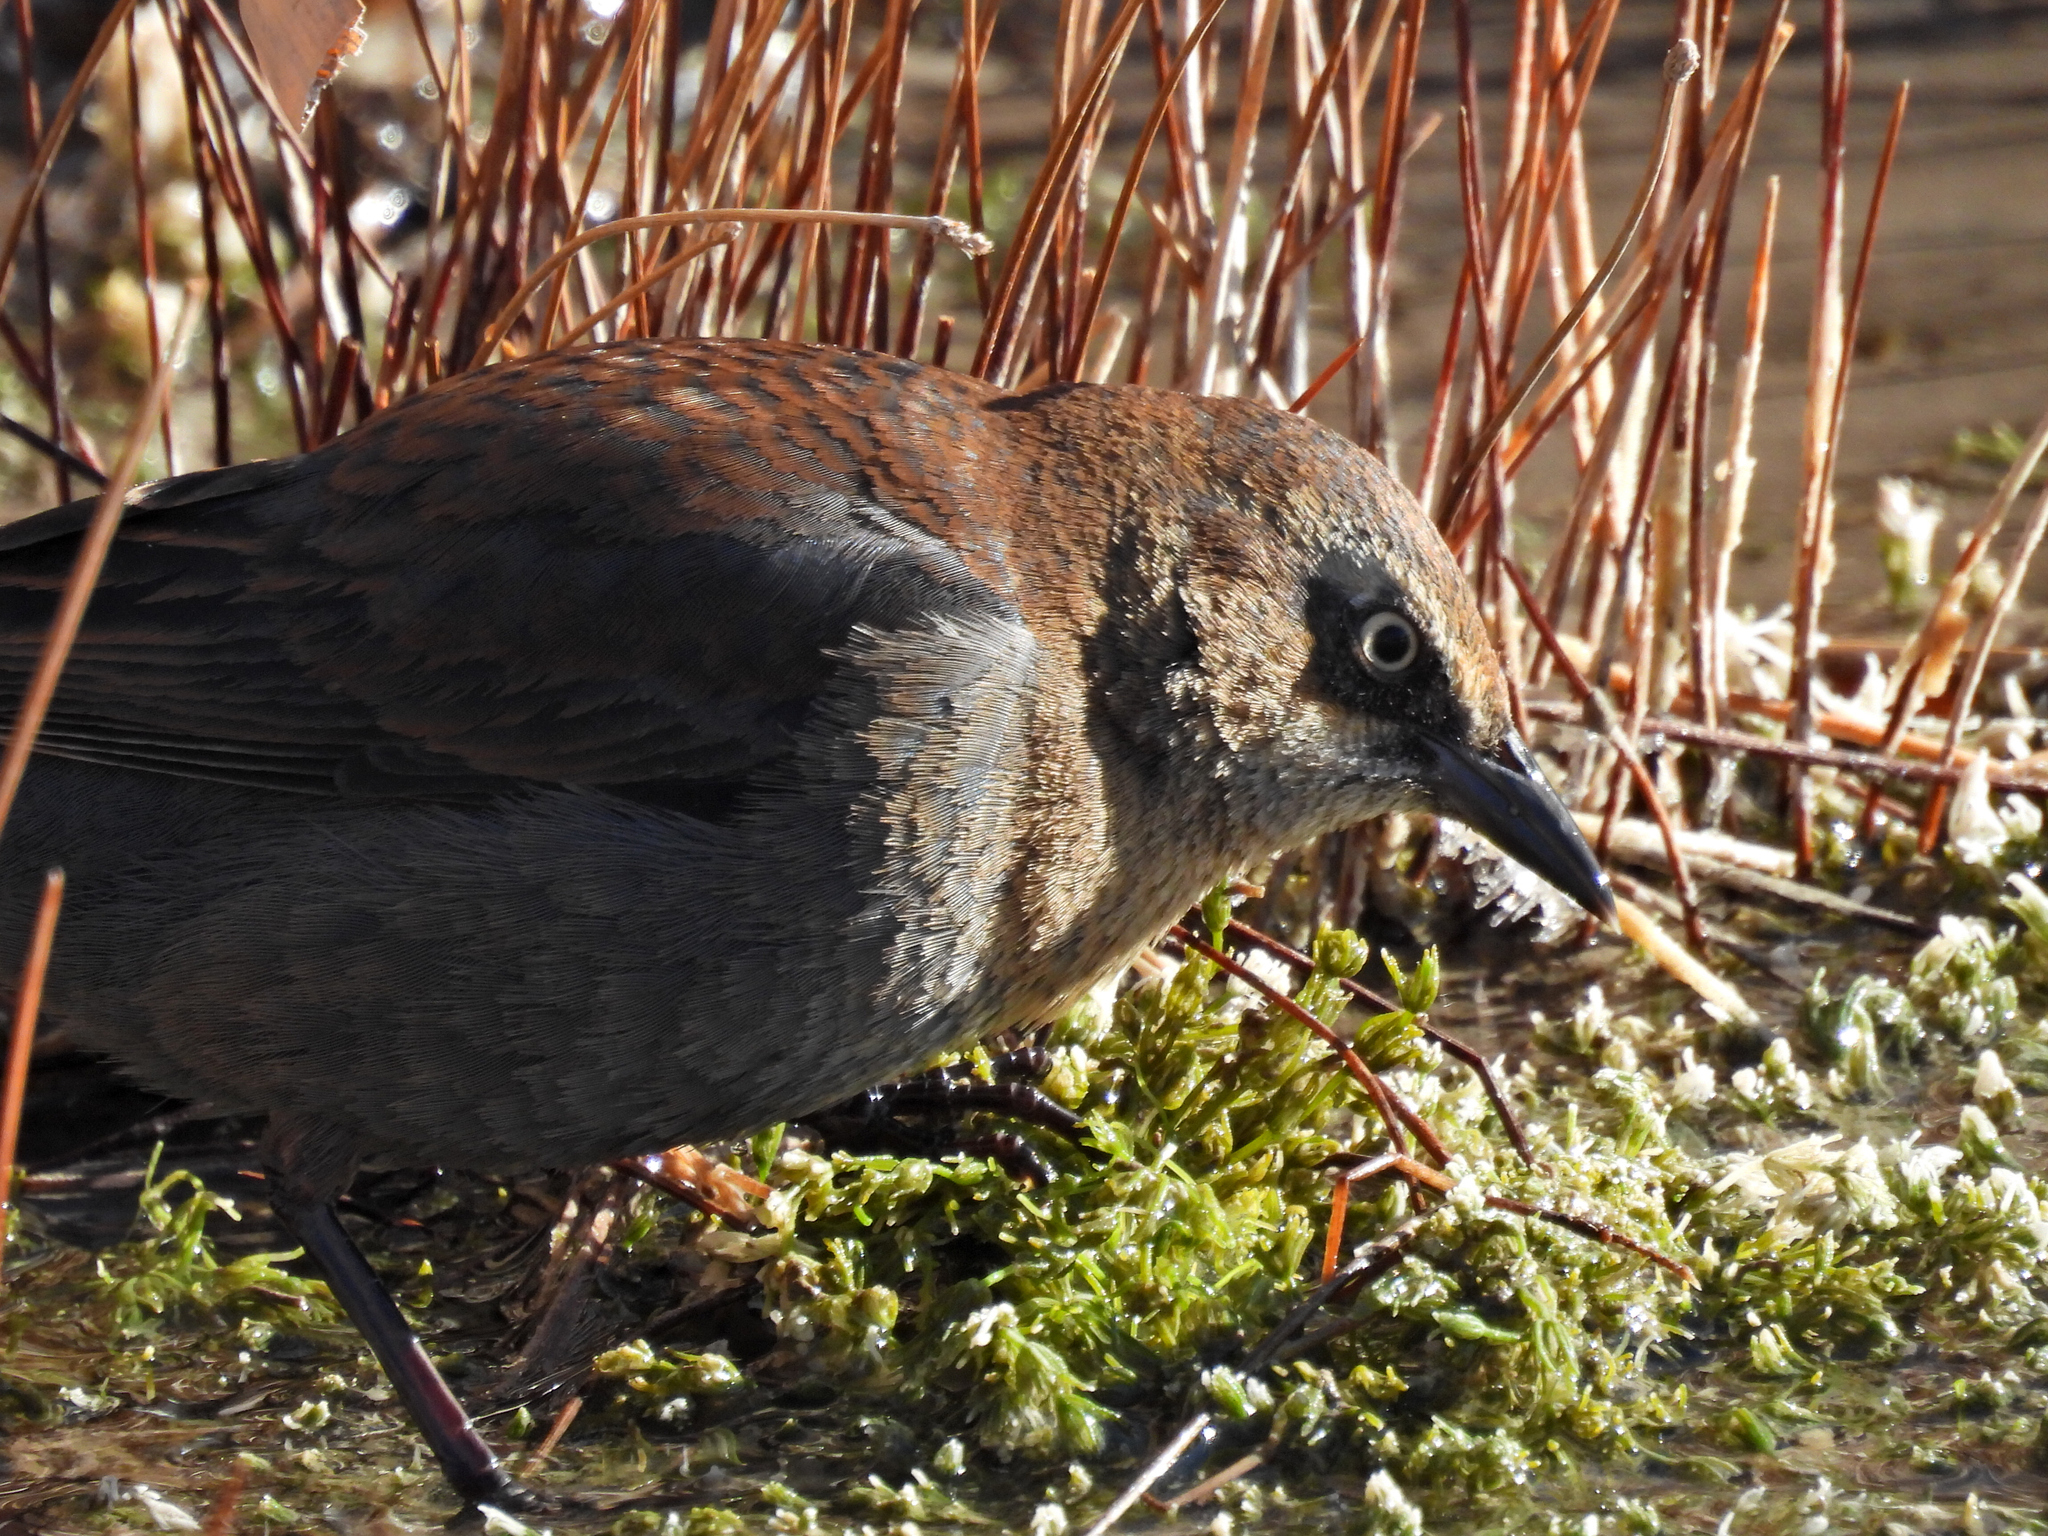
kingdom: Animalia
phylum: Chordata
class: Aves
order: Passeriformes
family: Icteridae
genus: Euphagus
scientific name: Euphagus carolinus
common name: Rusty blackbird
